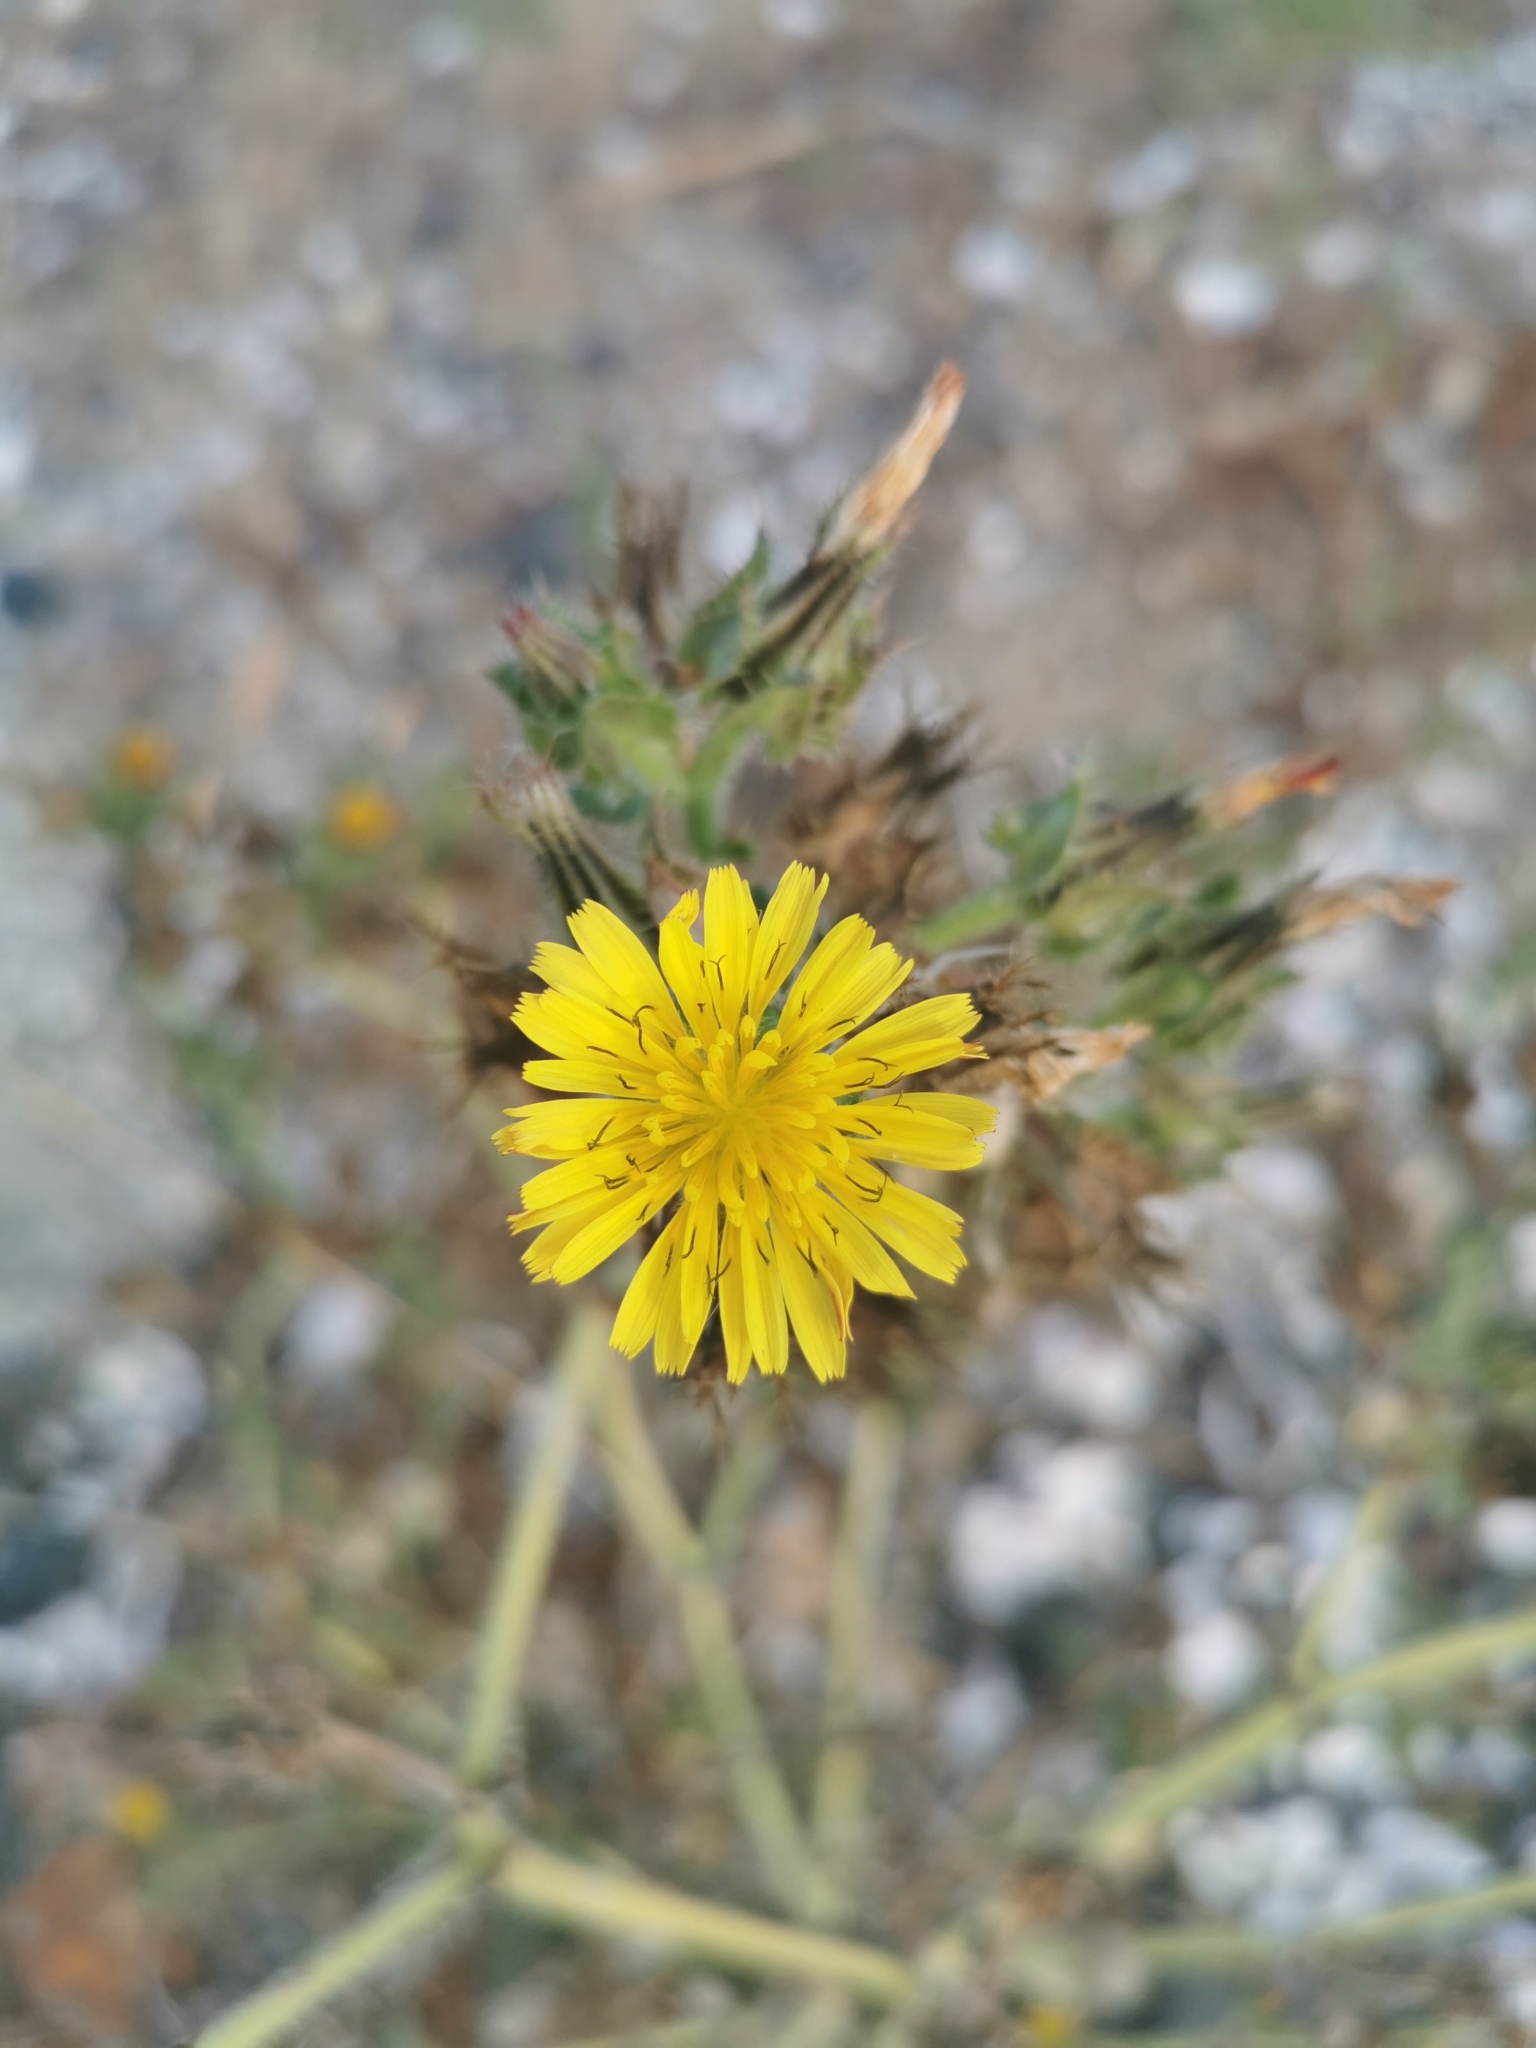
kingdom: Plantae
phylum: Tracheophyta
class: Magnoliopsida
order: Asterales
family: Asteraceae
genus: Helminthotheca
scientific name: Helminthotheca echioides
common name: Ox-tongue
